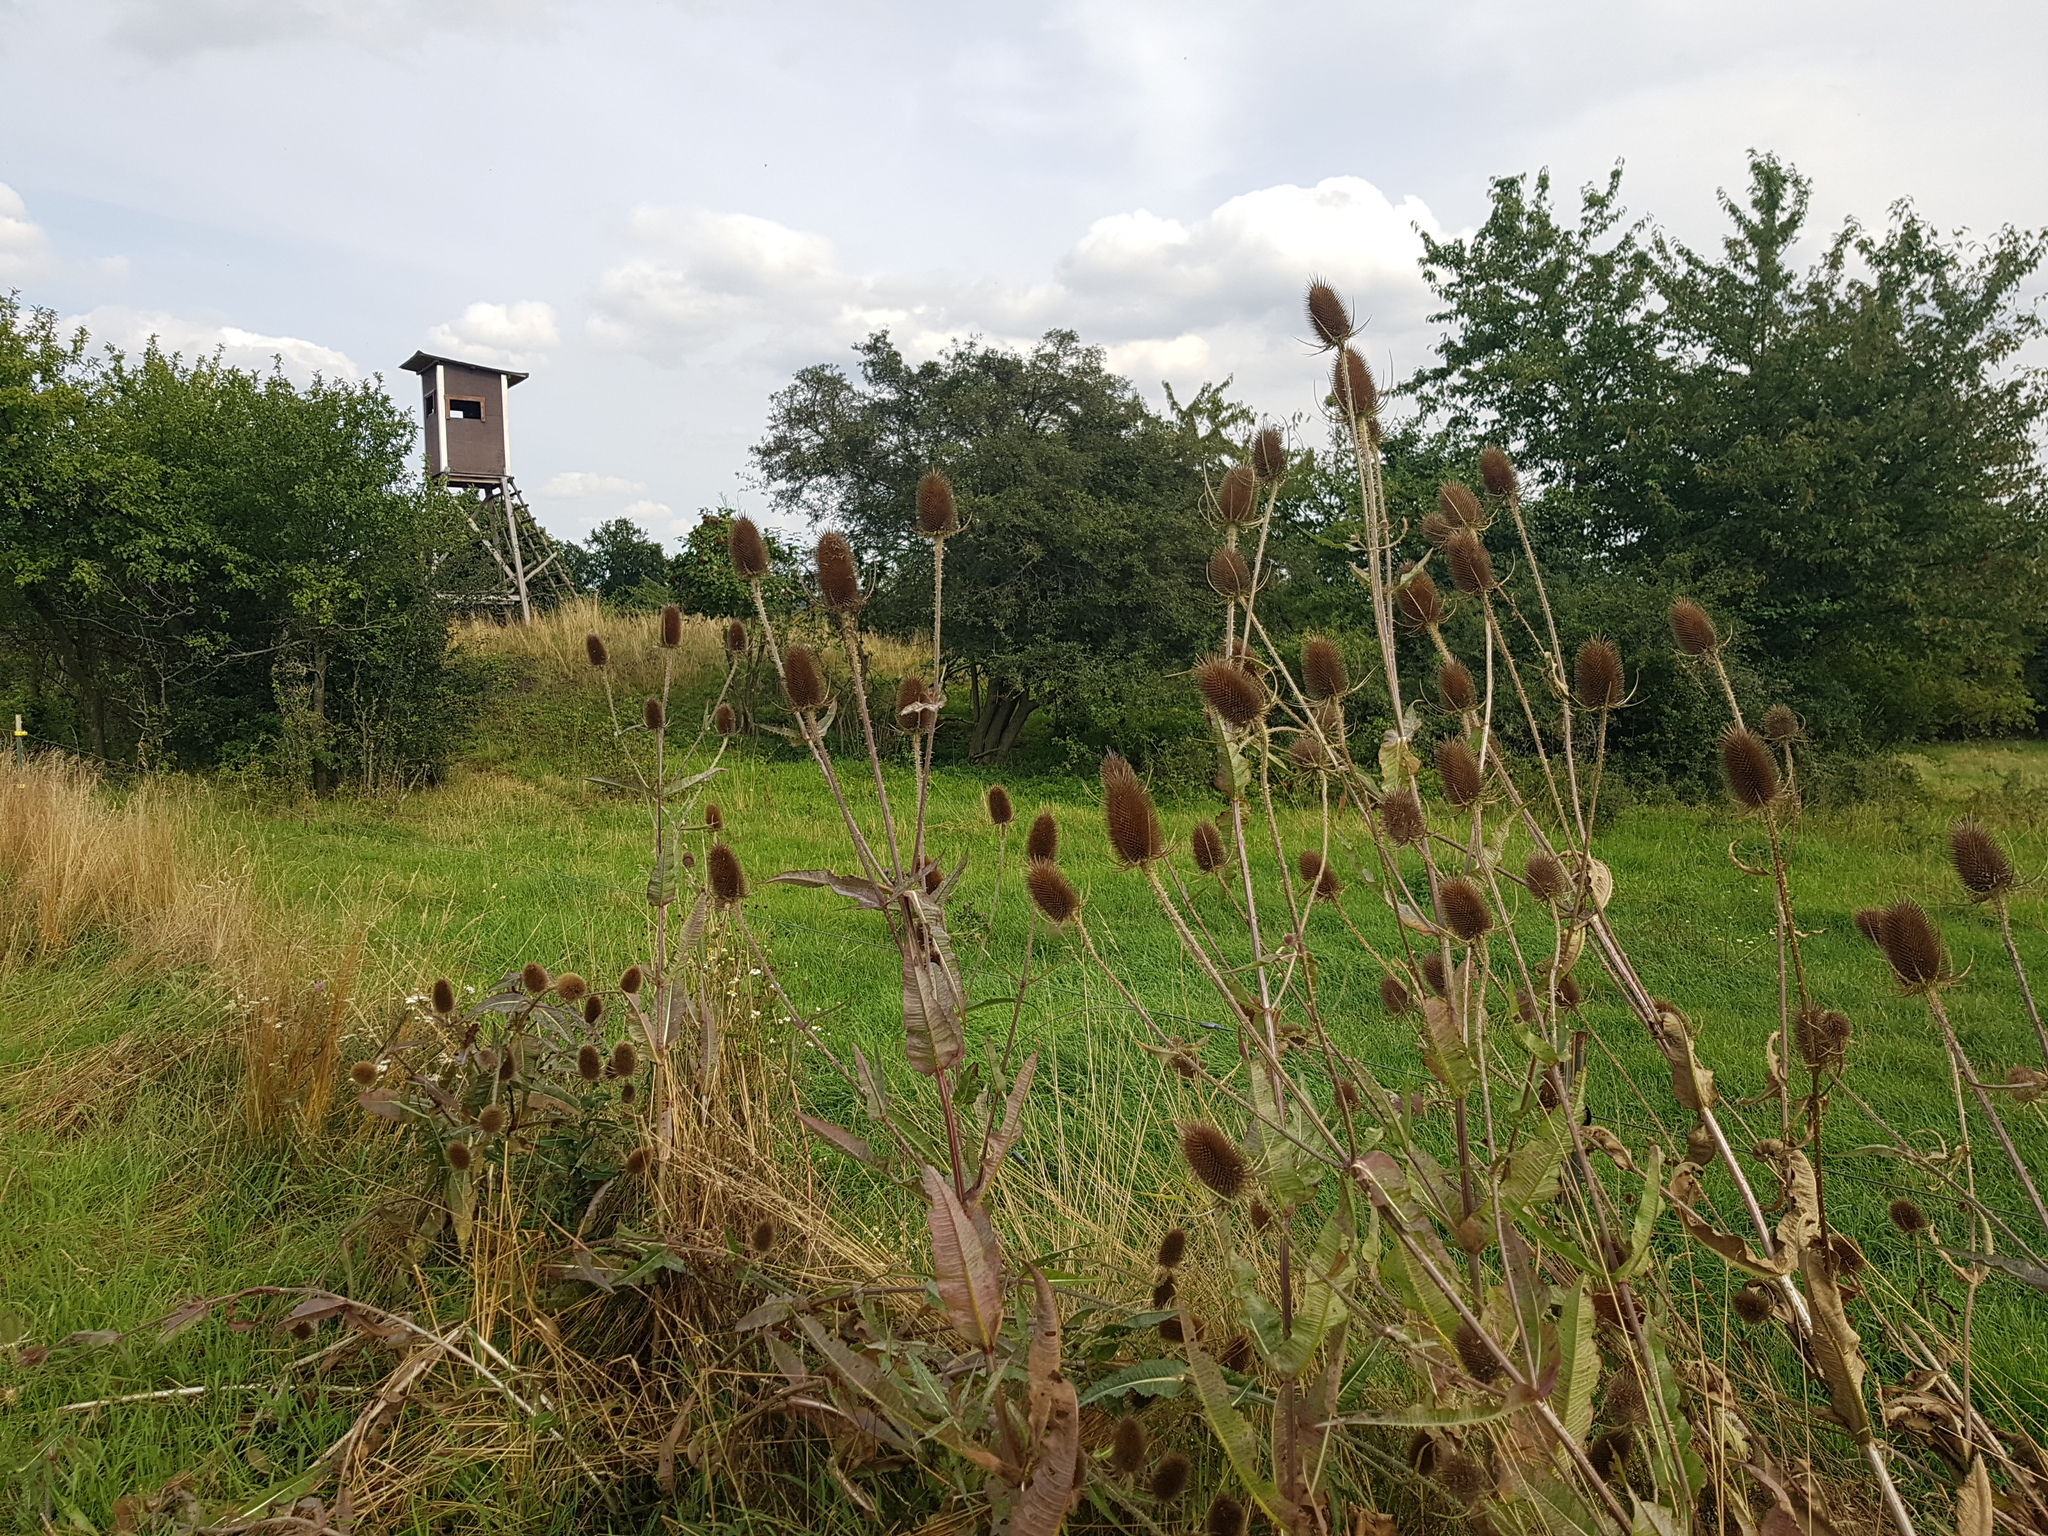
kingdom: Plantae
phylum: Tracheophyta
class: Magnoliopsida
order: Dipsacales
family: Caprifoliaceae
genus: Dipsacus
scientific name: Dipsacus fullonum
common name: Teasel
